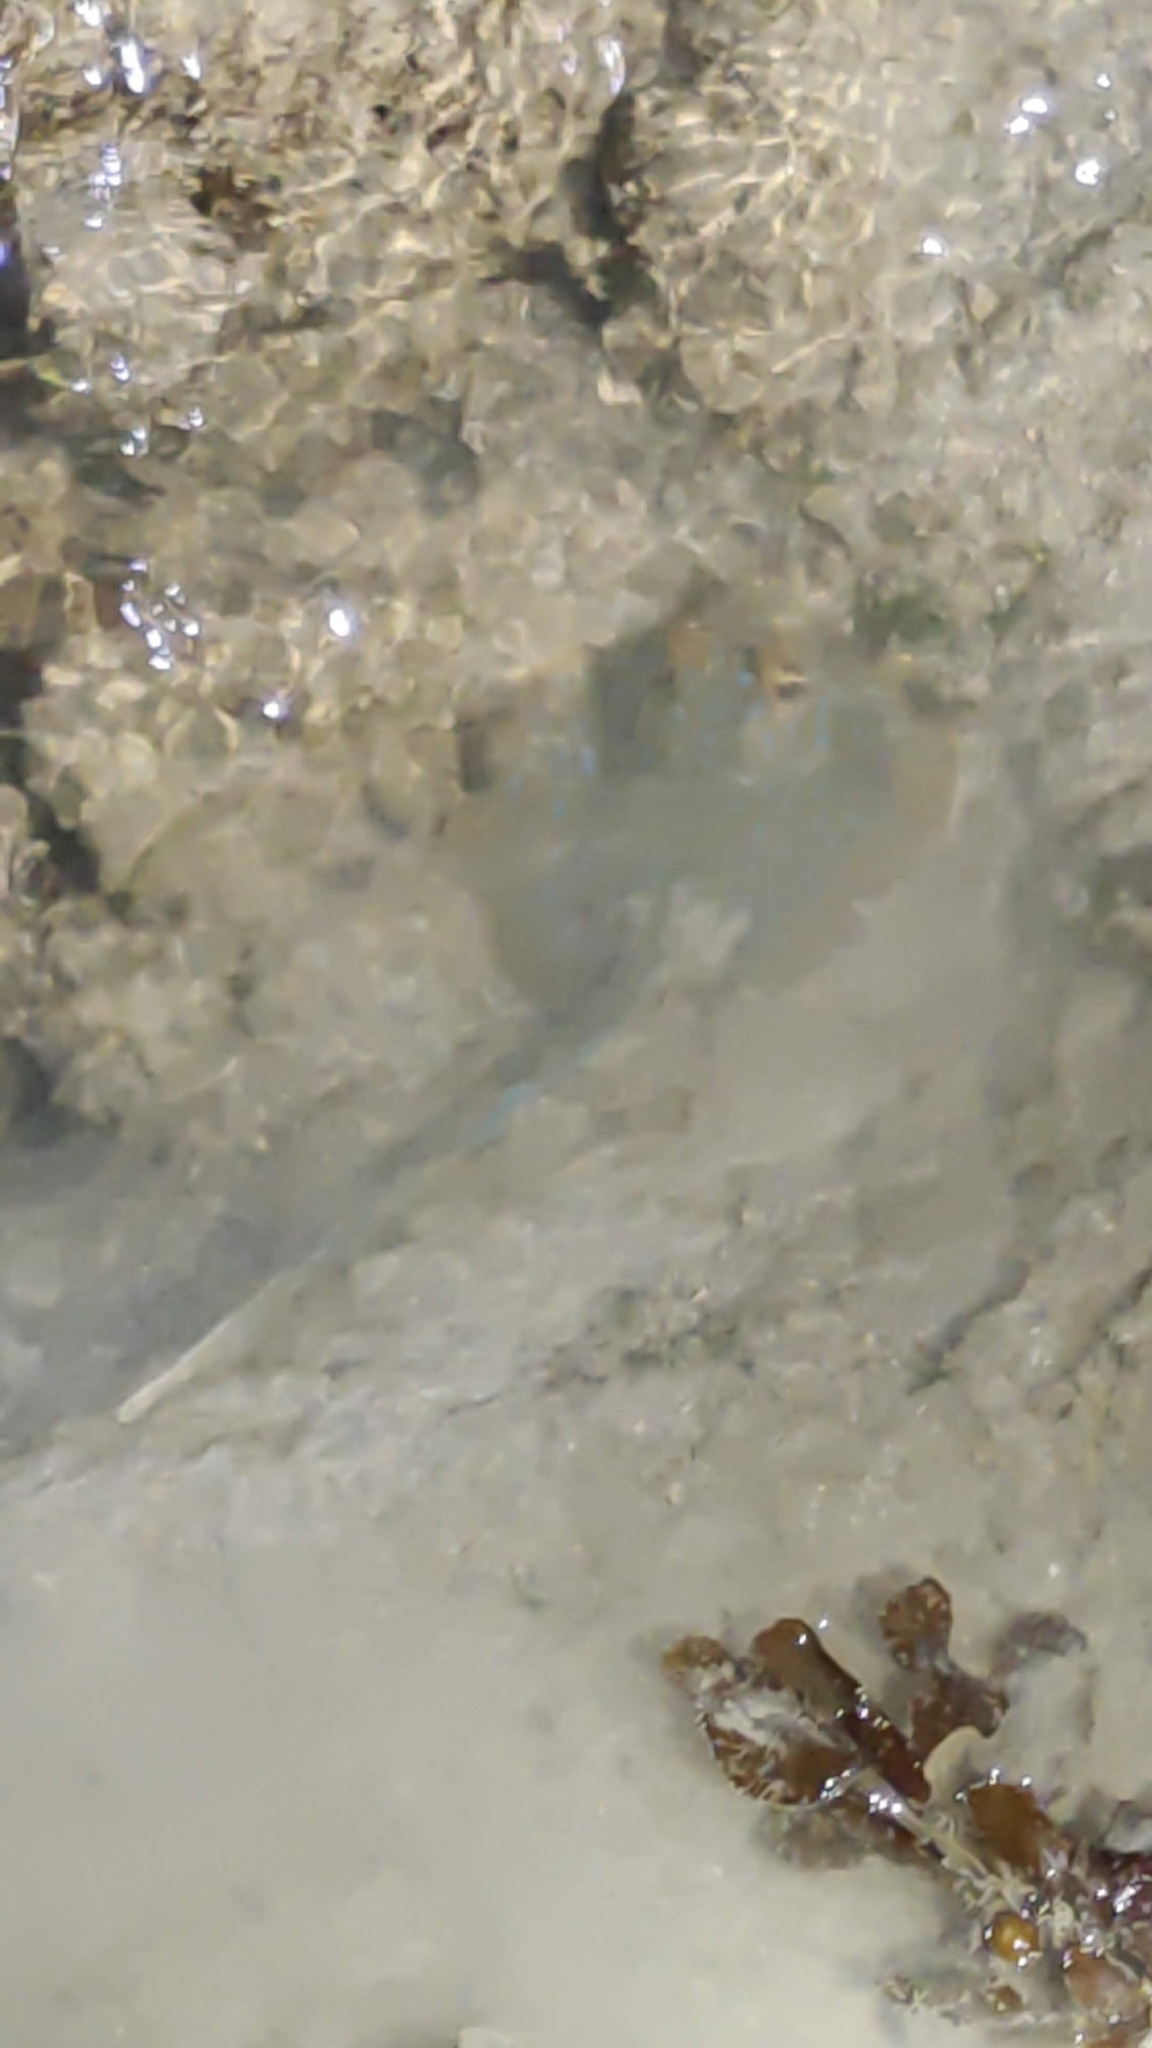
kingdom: Animalia
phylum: Chordata
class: Elasmobranchii
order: Myliobatiformes
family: Dasyatidae
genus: Taeniura
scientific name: Taeniura lymma
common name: Bluespotted ribbontail ray
